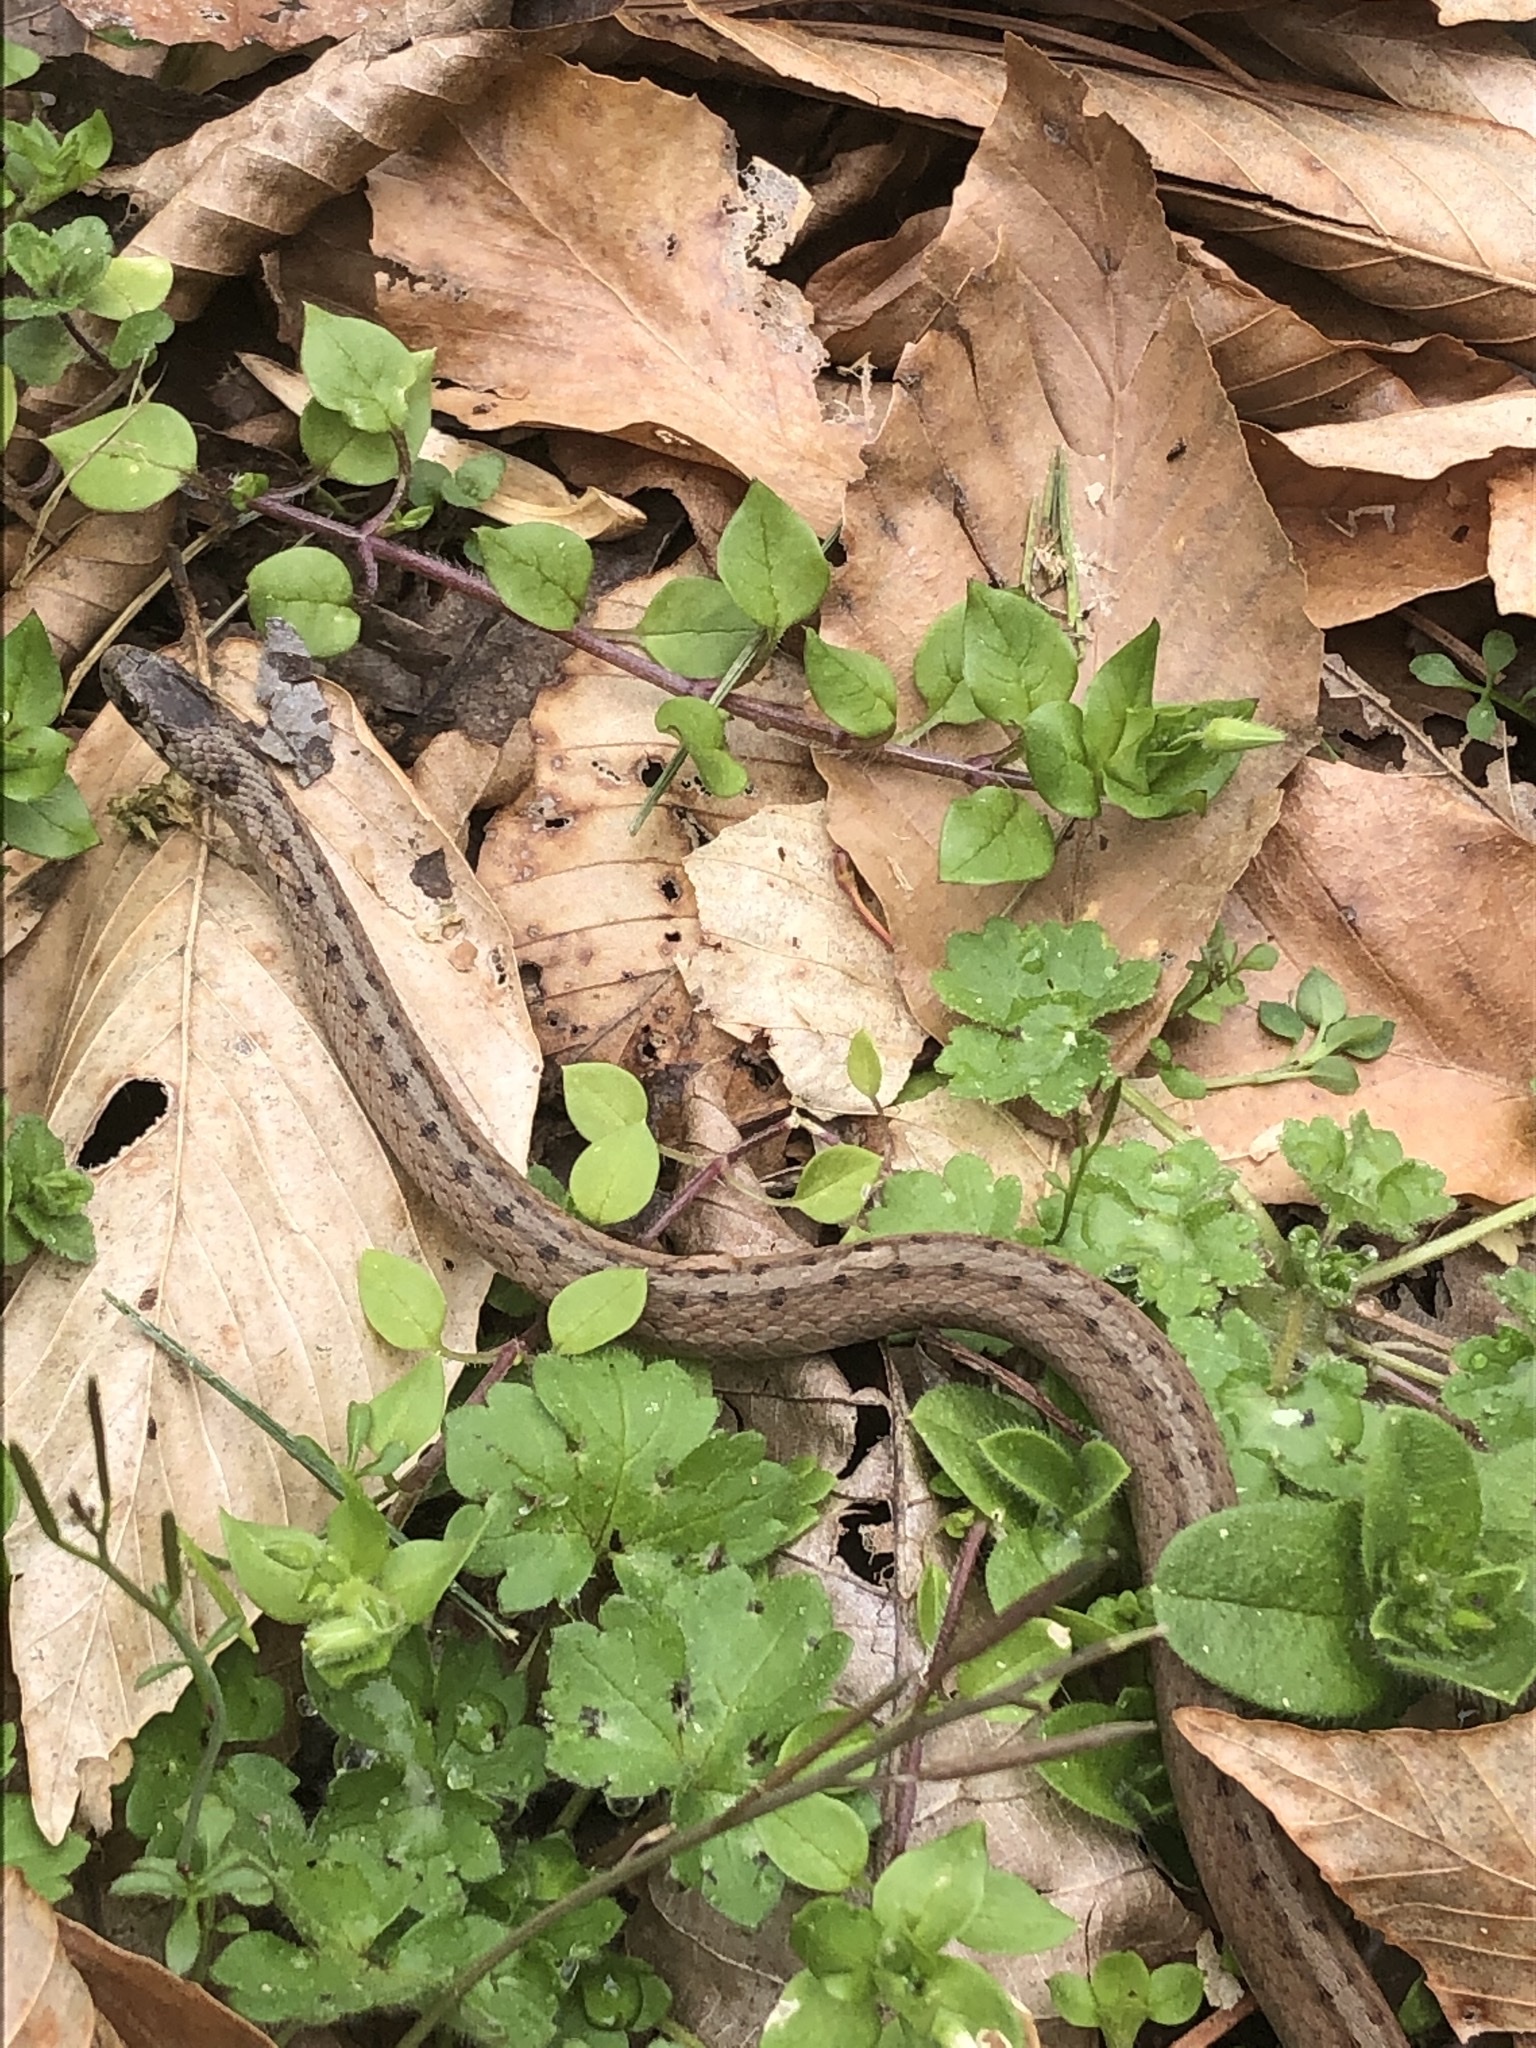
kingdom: Animalia
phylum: Chordata
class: Squamata
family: Colubridae
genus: Storeria
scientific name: Storeria dekayi
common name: (dekay’s) brown snake
